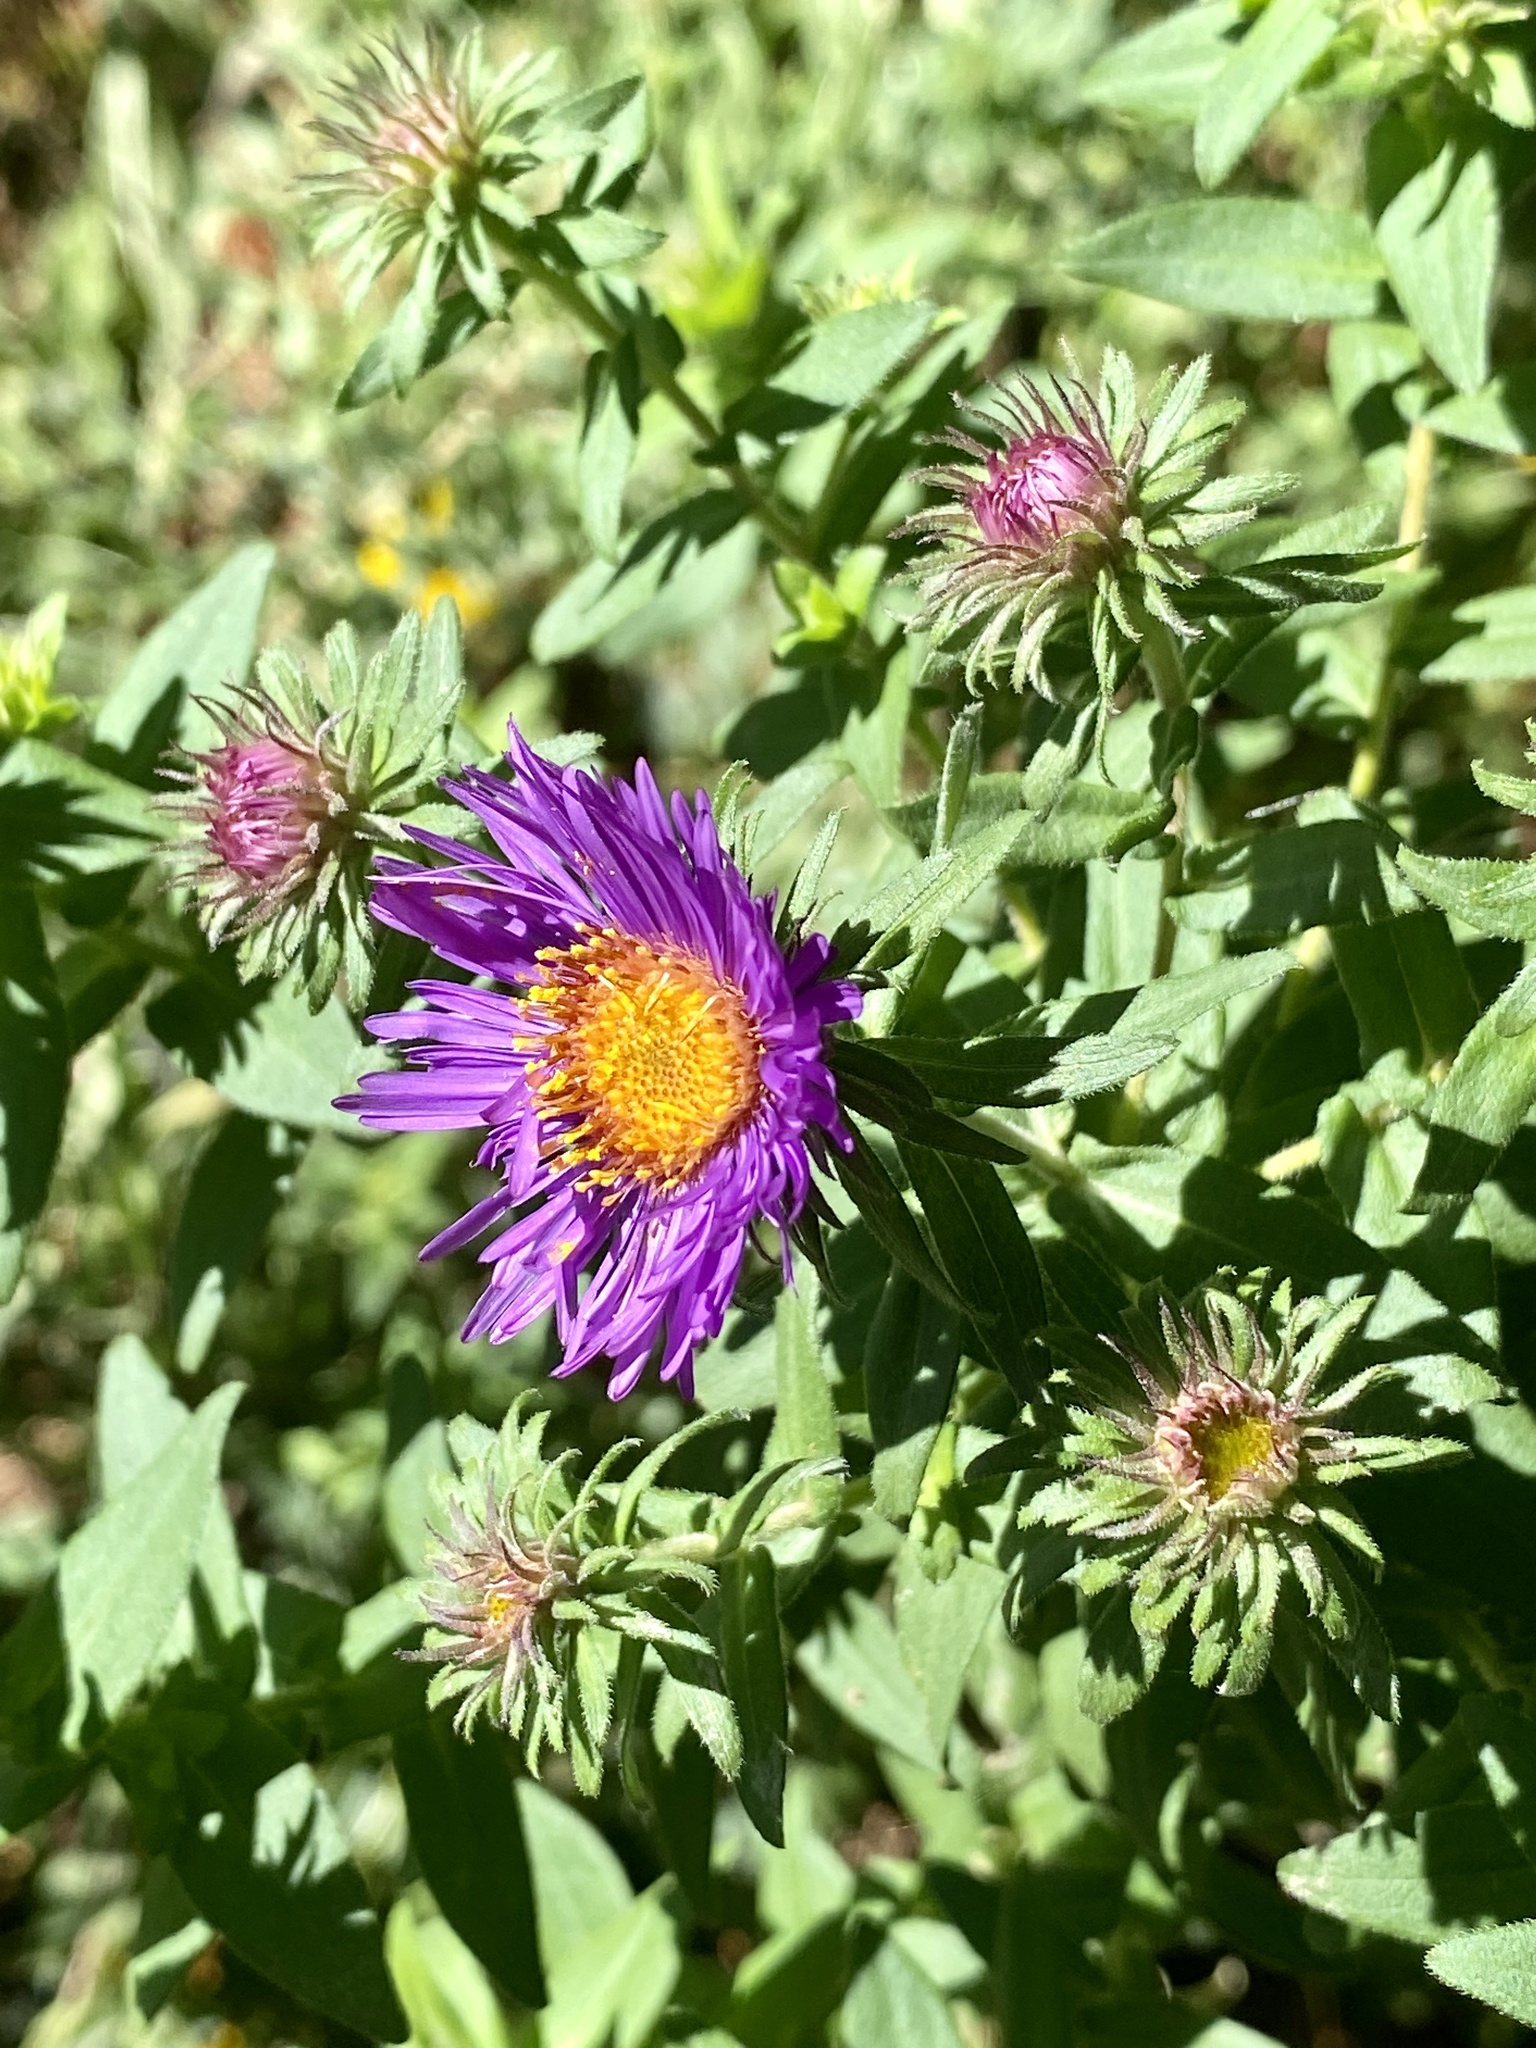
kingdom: Plantae
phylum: Tracheophyta
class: Magnoliopsida
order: Asterales
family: Asteraceae
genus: Symphyotrichum
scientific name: Symphyotrichum novae-angliae
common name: Michaelmas daisy
